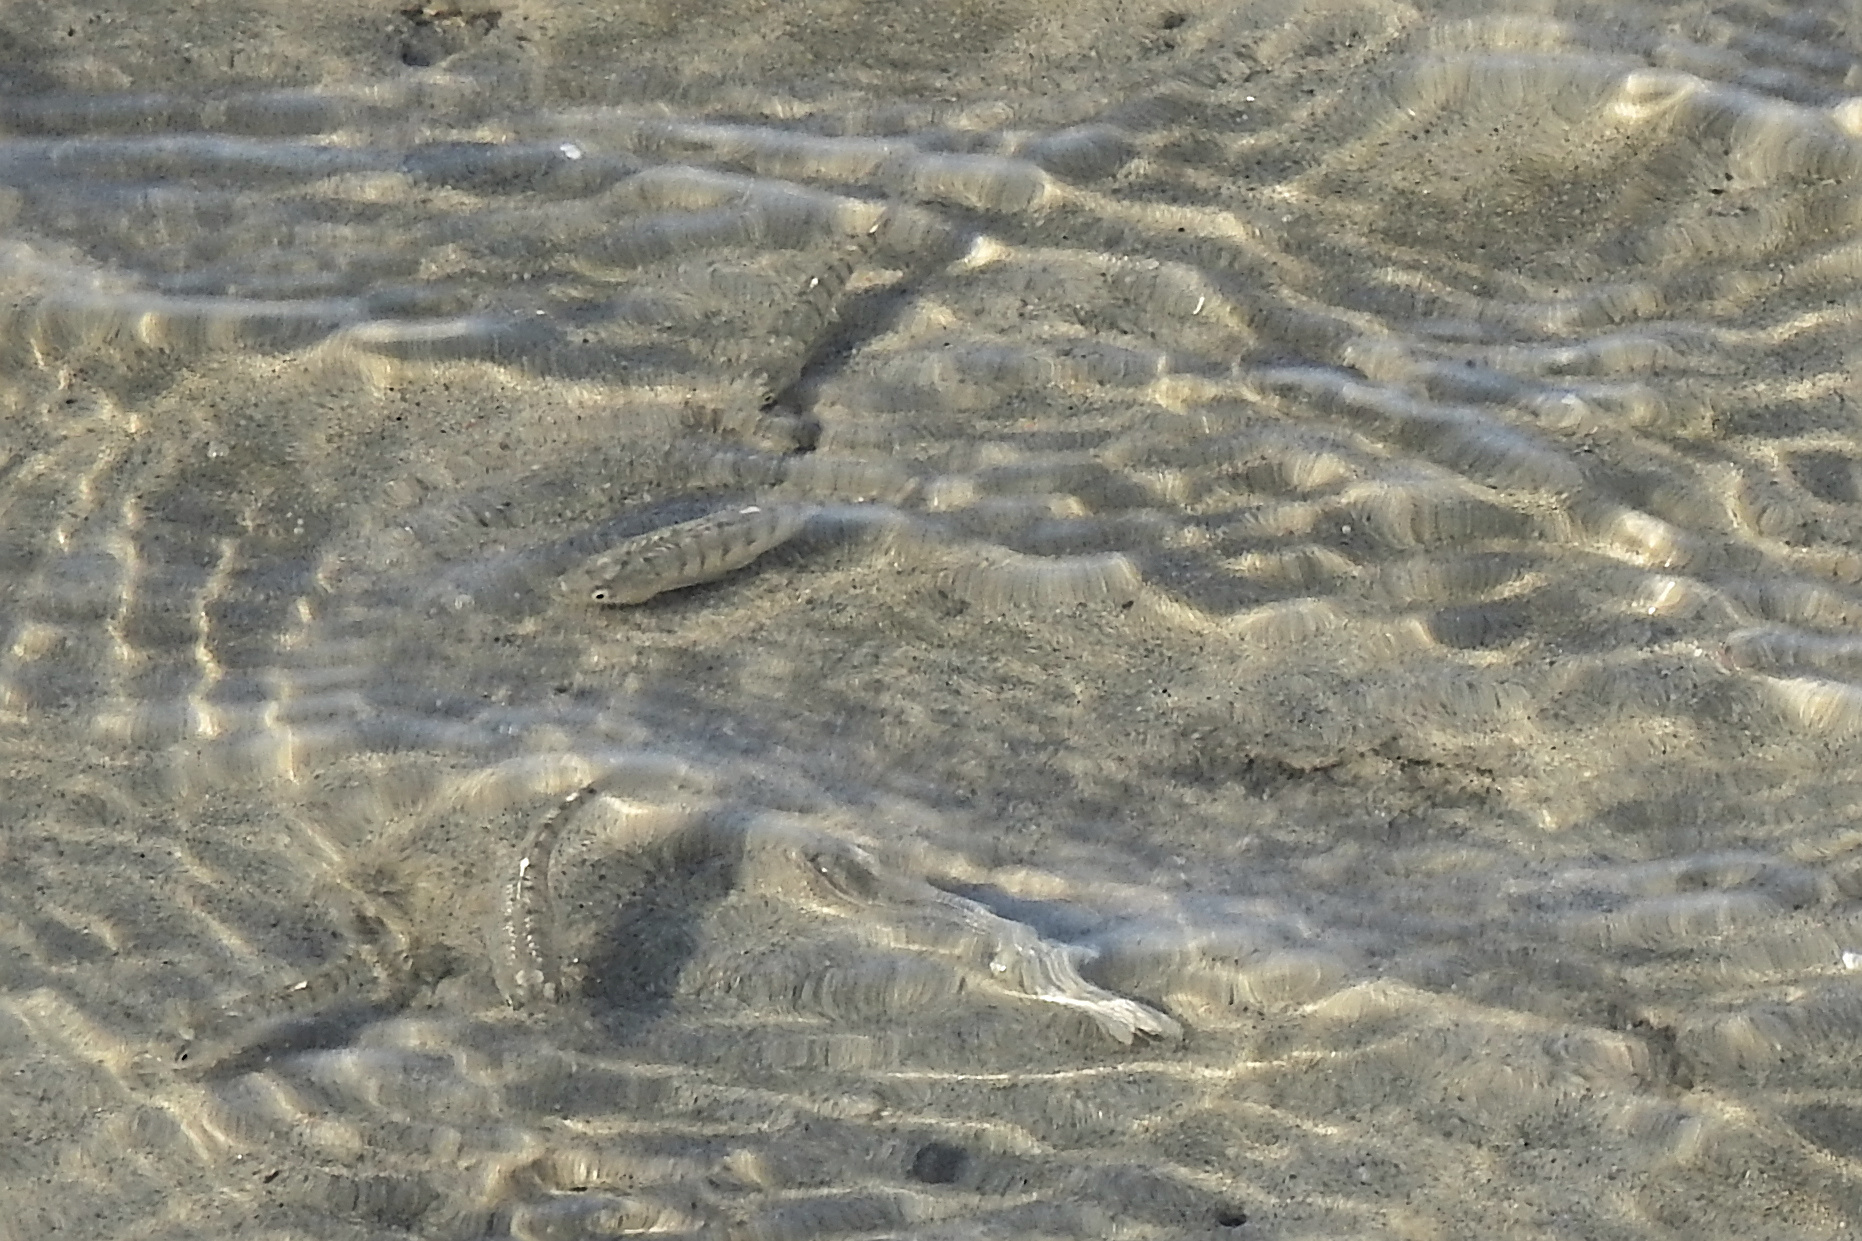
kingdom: Animalia
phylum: Chordata
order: Cyprinodontiformes
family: Fundulidae
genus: Fundulus
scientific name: Fundulus majalis
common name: Striped killifish
